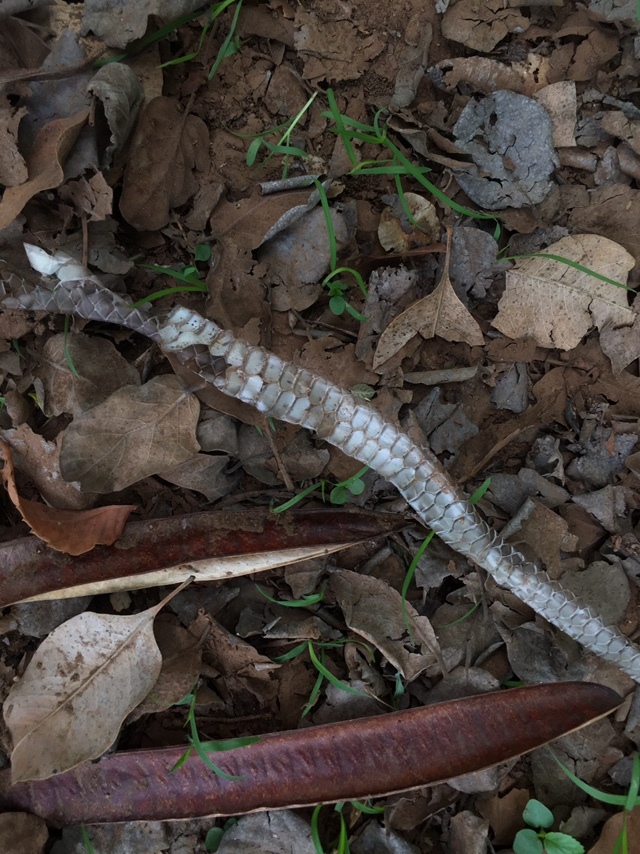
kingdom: Animalia
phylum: Chordata
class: Squamata
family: Colubridae
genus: Ptyas
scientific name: Ptyas mucosa
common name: Oriental ratsnake
